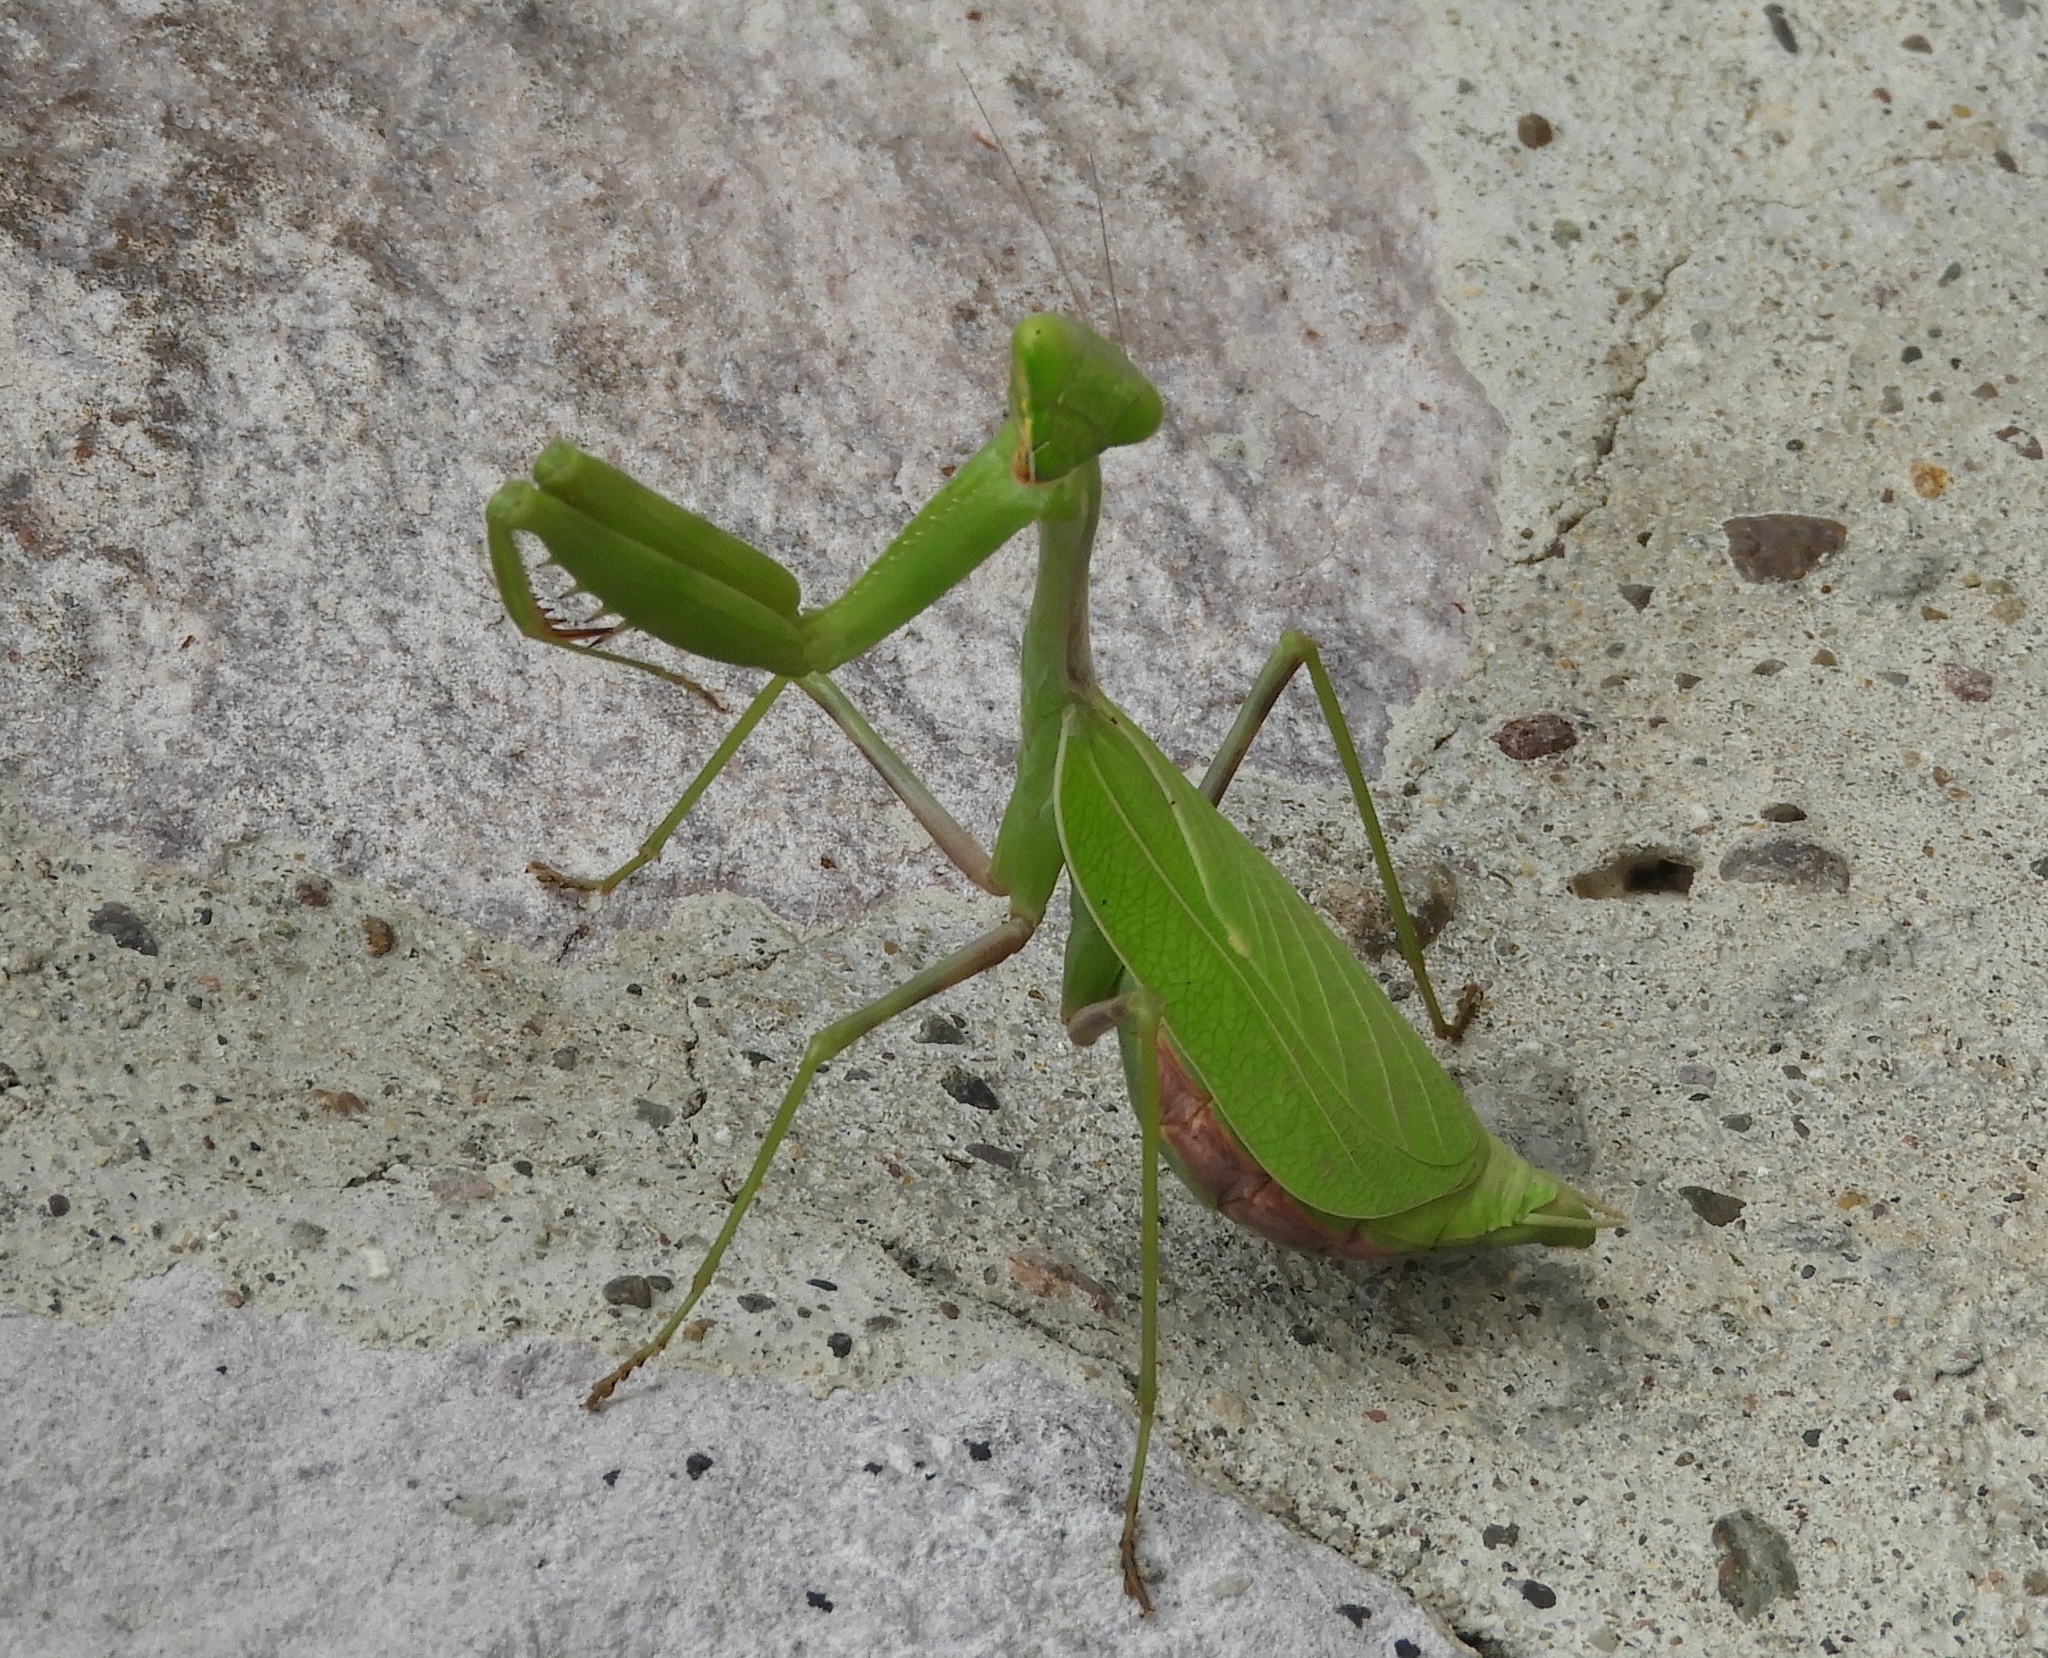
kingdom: Animalia
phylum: Arthropoda
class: Insecta
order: Mantodea
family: Mantidae
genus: Stagmomantis
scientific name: Stagmomantis limbata
